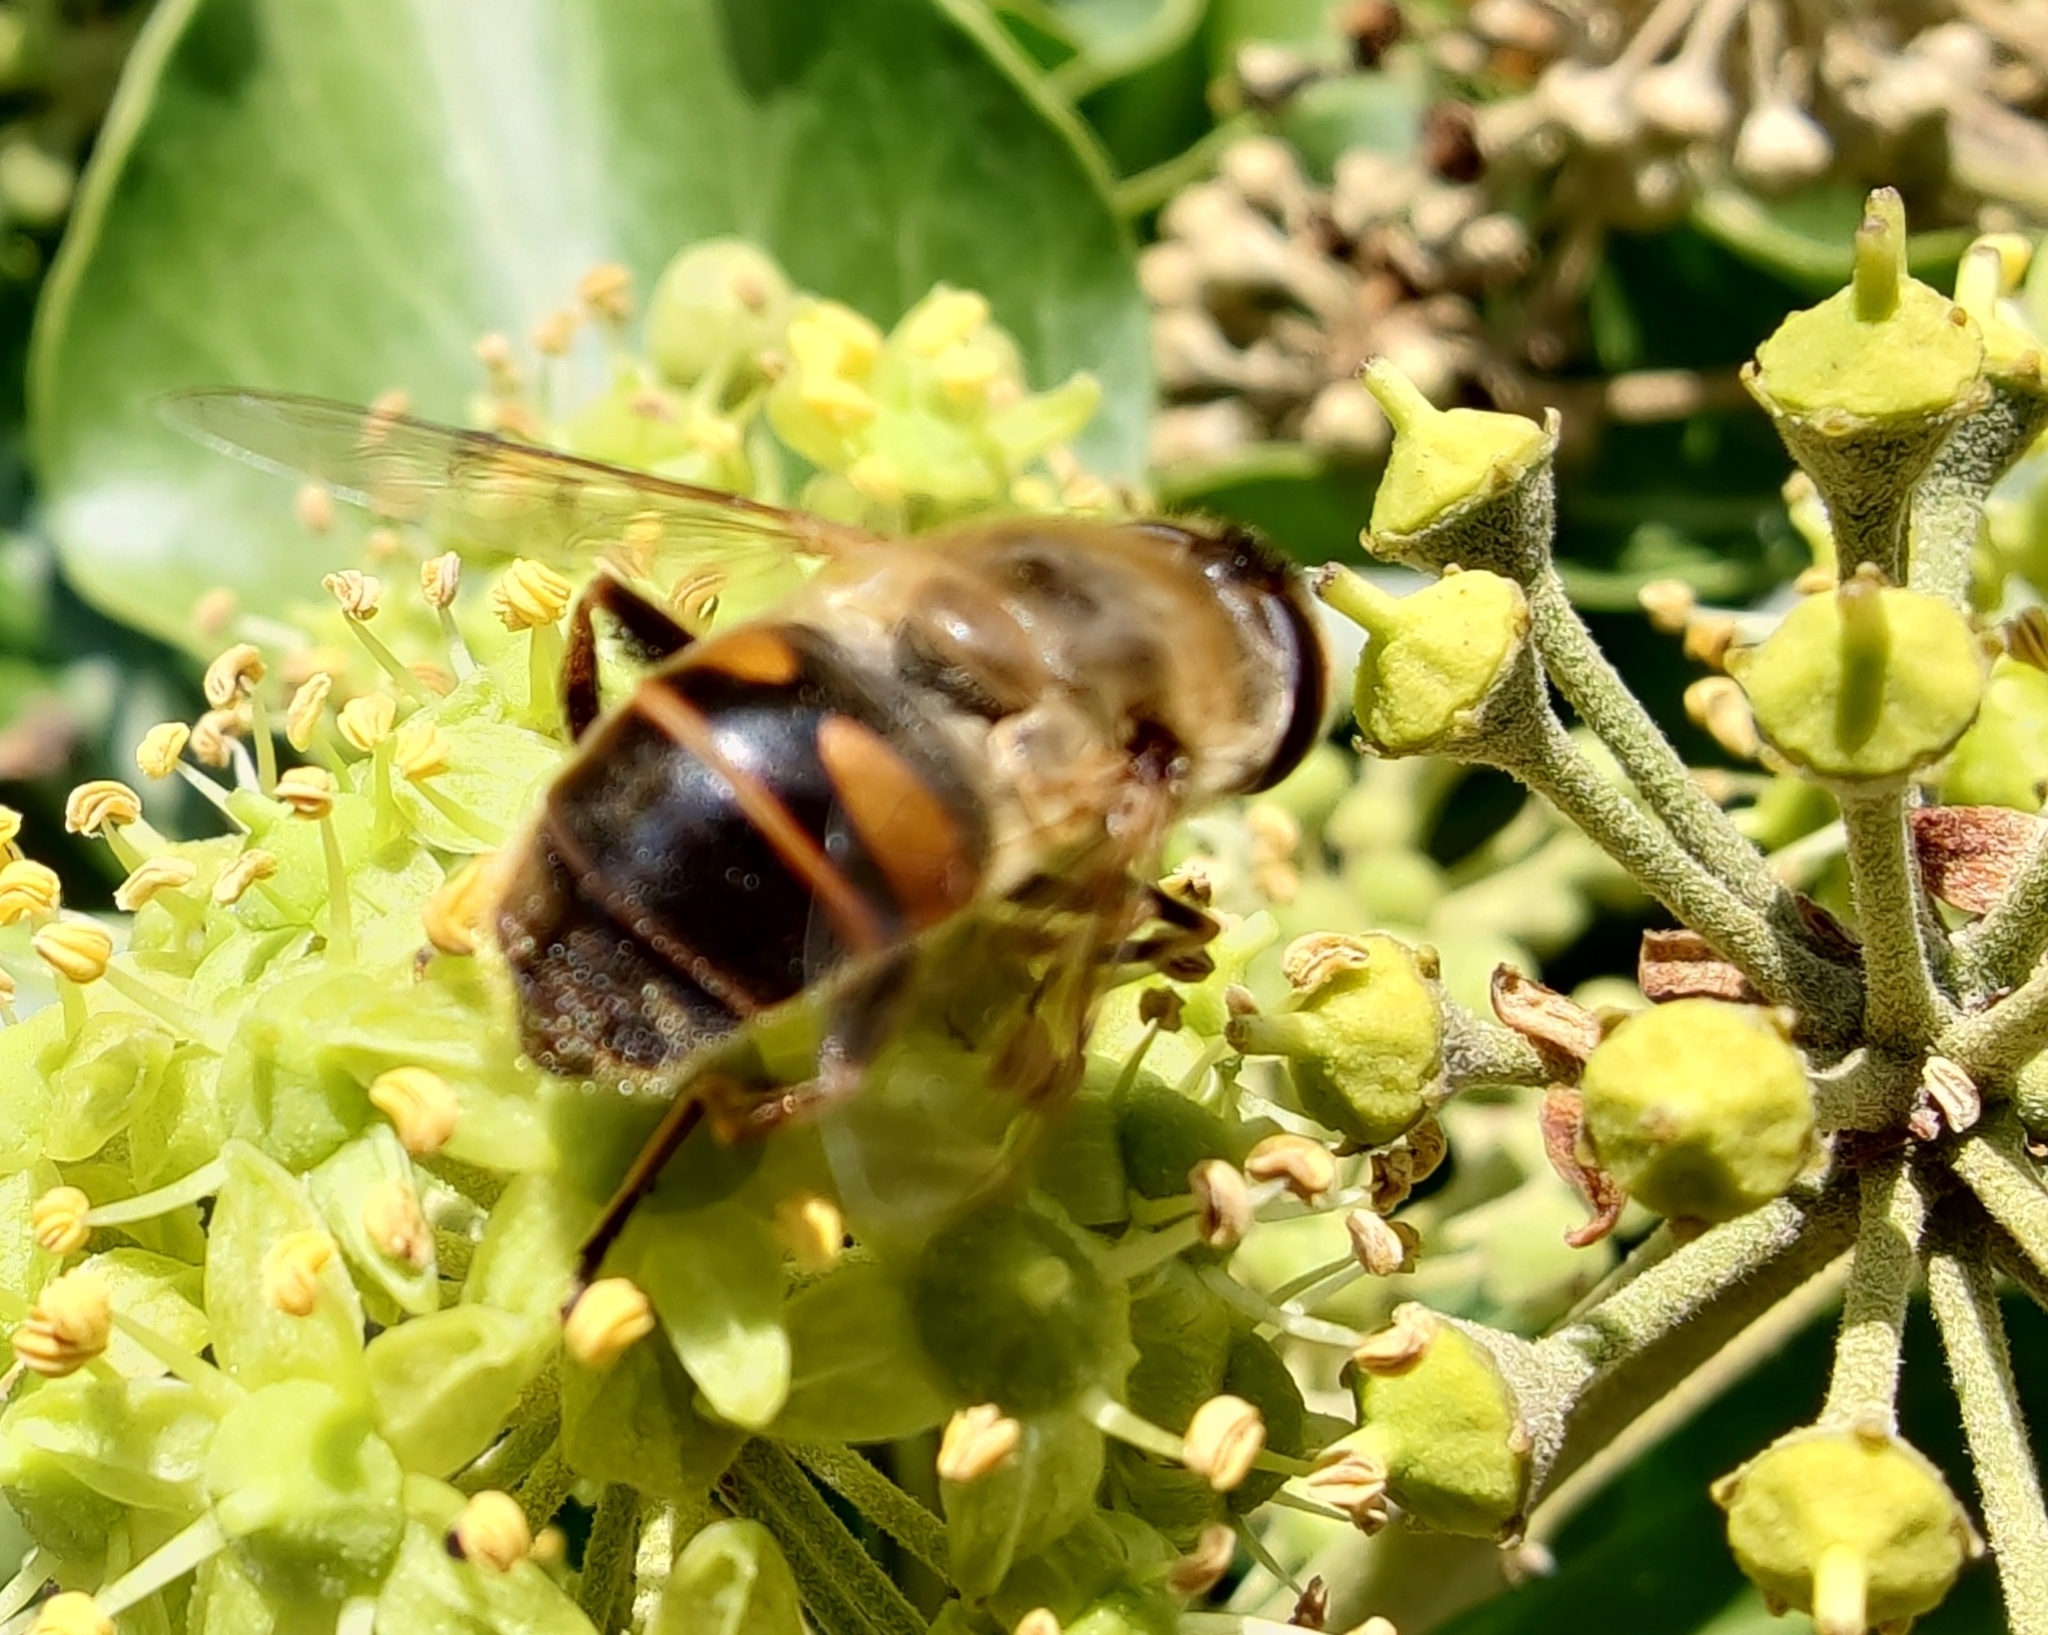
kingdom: Animalia
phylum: Arthropoda
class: Insecta
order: Diptera
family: Syrphidae
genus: Eristalis
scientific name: Eristalis tenax
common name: Drone fly
